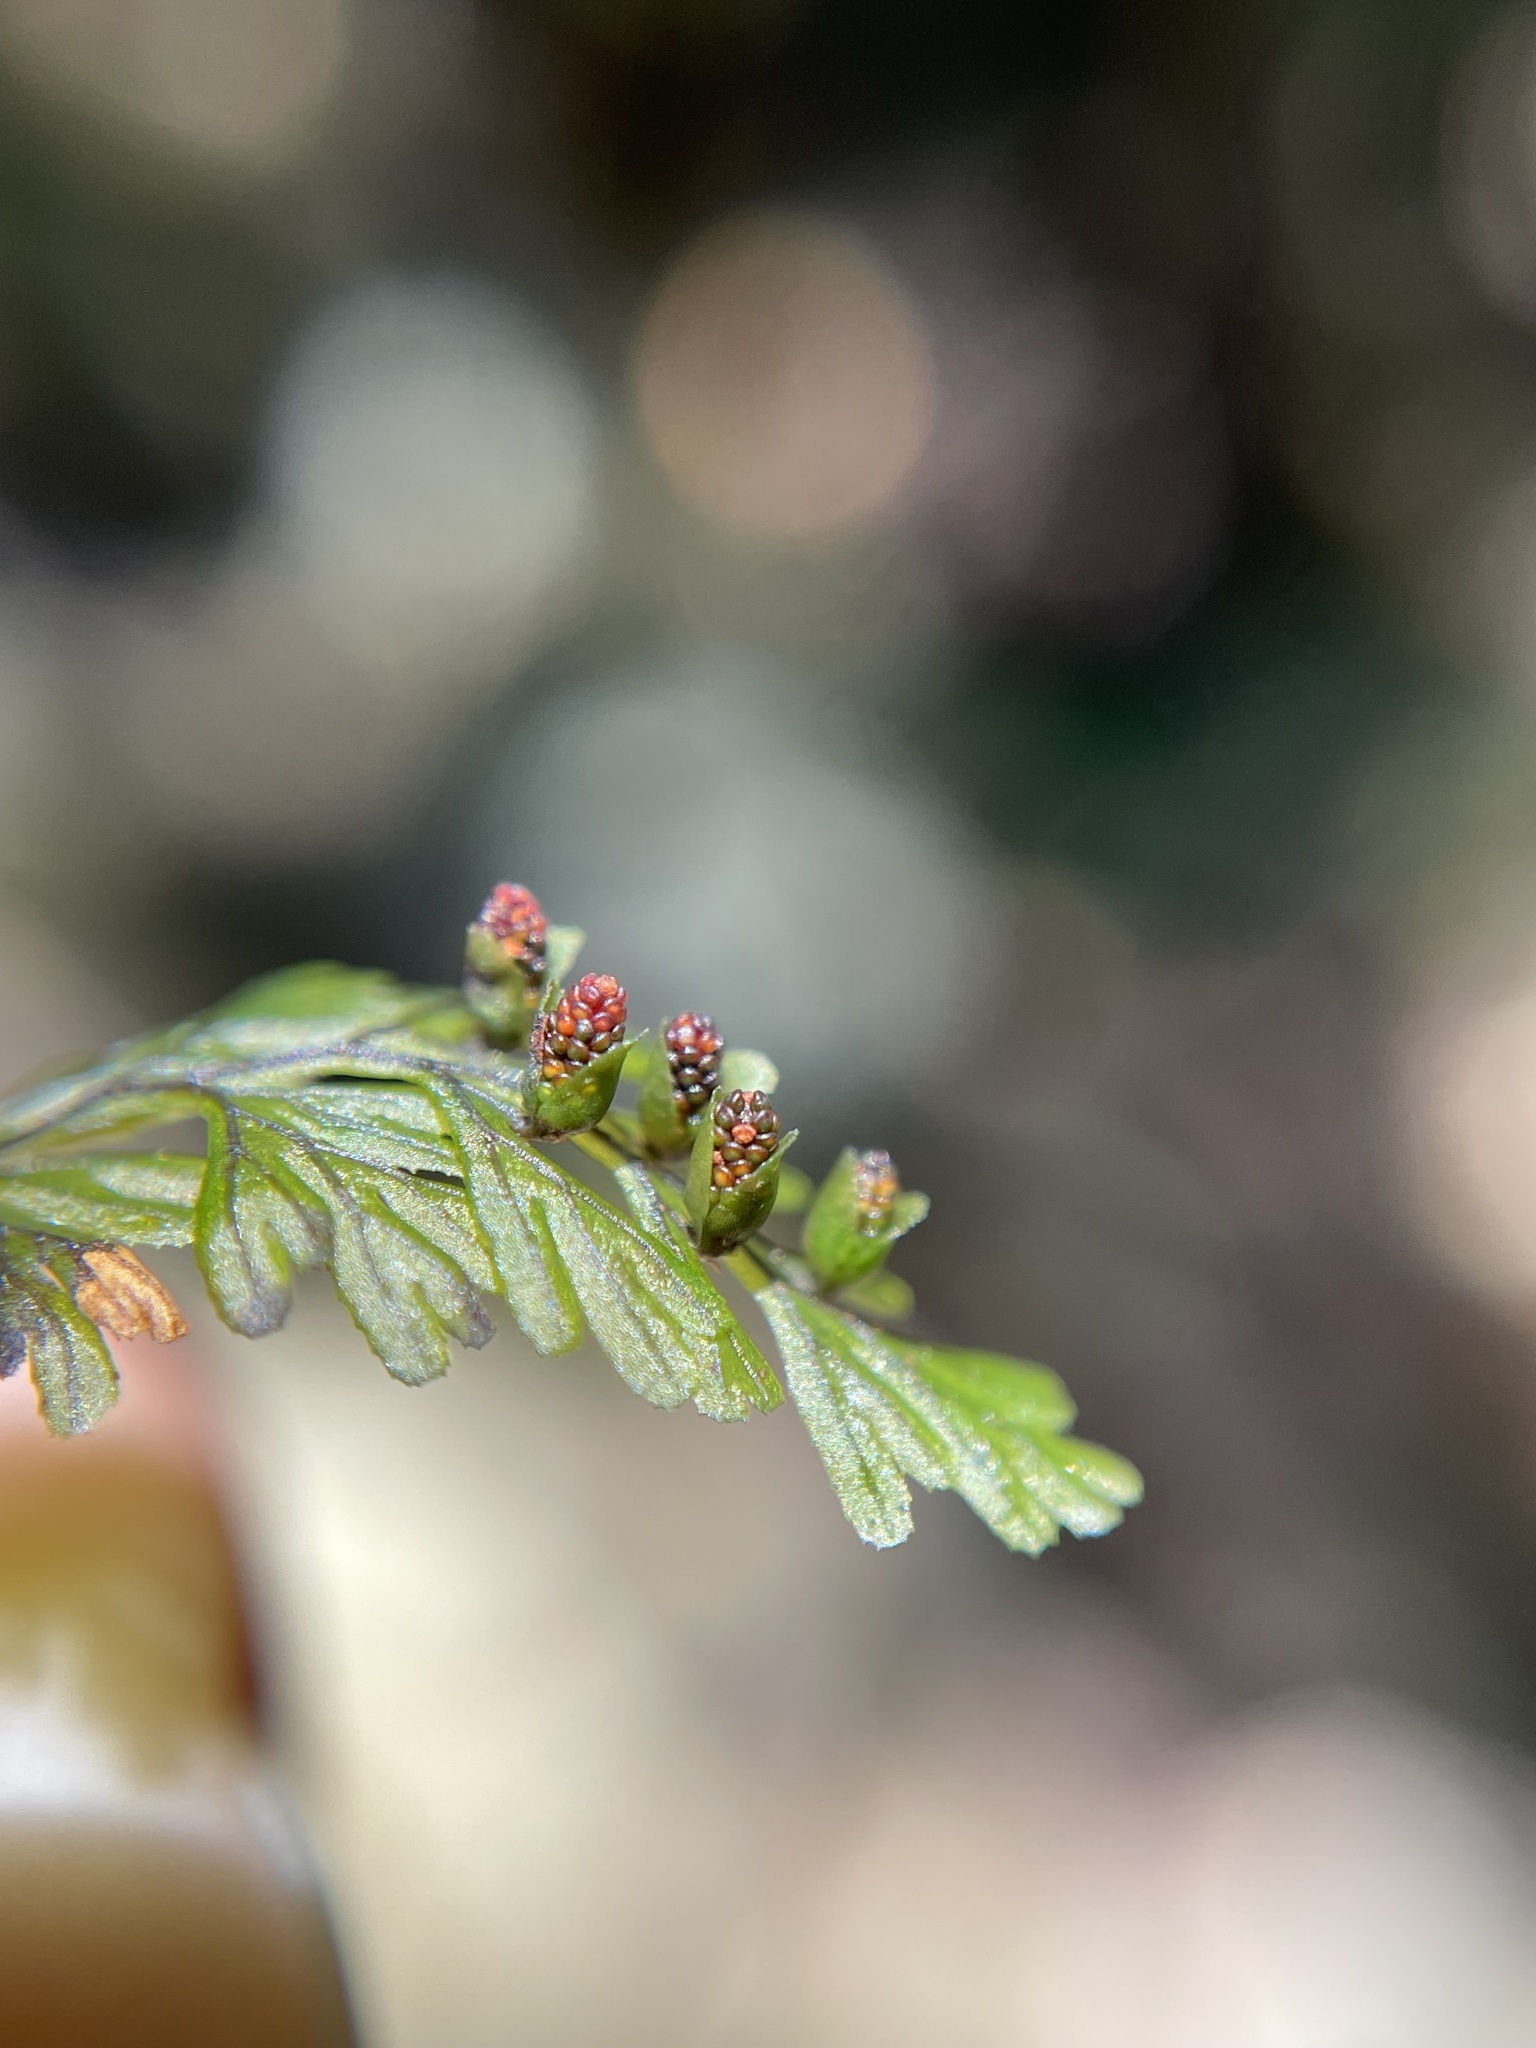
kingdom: Plantae
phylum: Tracheophyta
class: Polypodiopsida
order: Hymenophyllales
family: Hymenophyllaceae
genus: Hymenophyllum
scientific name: Hymenophyllum tunbrigense
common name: Tunbridge filmy fern
